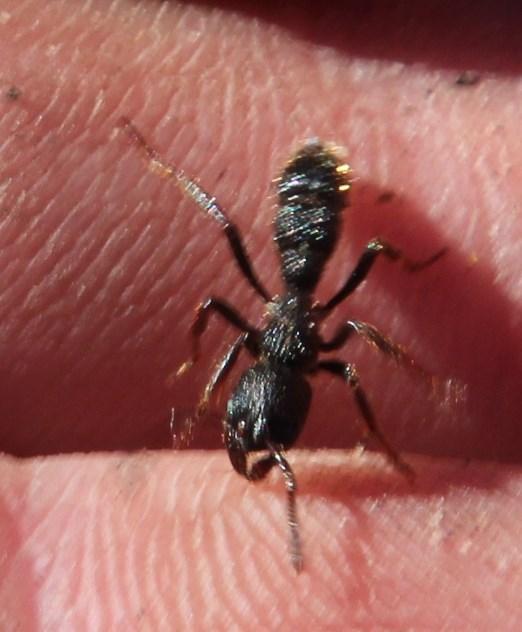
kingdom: Animalia
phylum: Arthropoda
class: Insecta
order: Hymenoptera
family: Formicidae
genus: Bothroponera
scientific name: Bothroponera pumicosa
